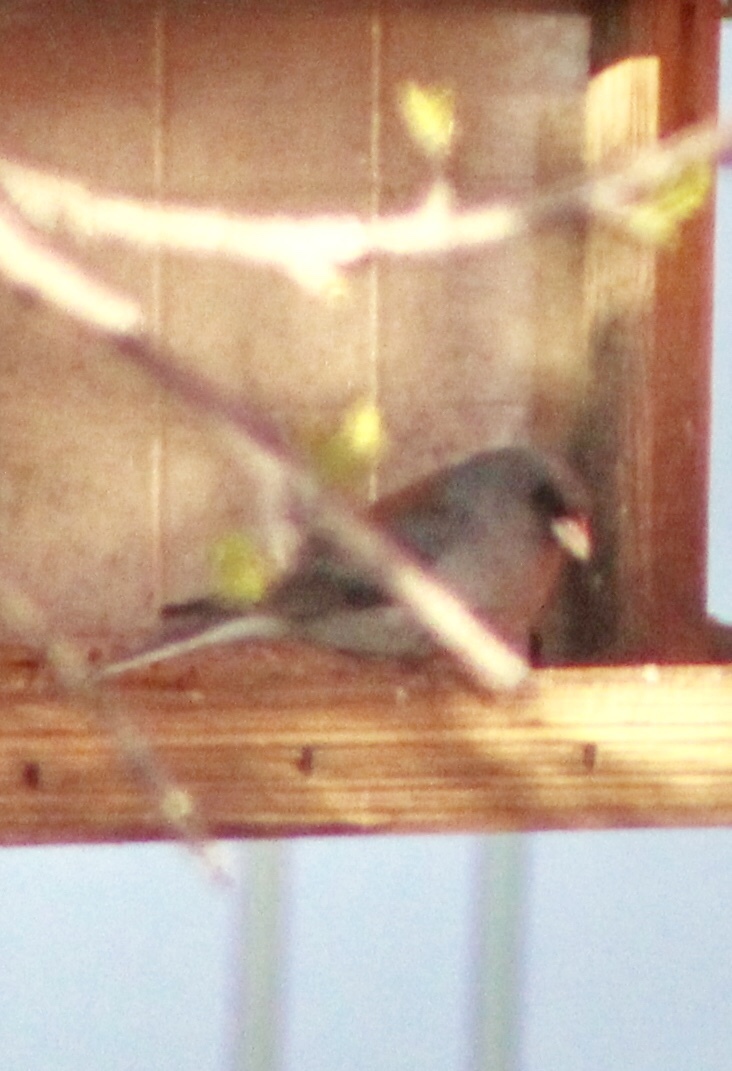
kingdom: Animalia
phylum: Chordata
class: Aves
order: Passeriformes
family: Passerellidae
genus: Junco
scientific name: Junco hyemalis
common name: Dark-eyed junco
